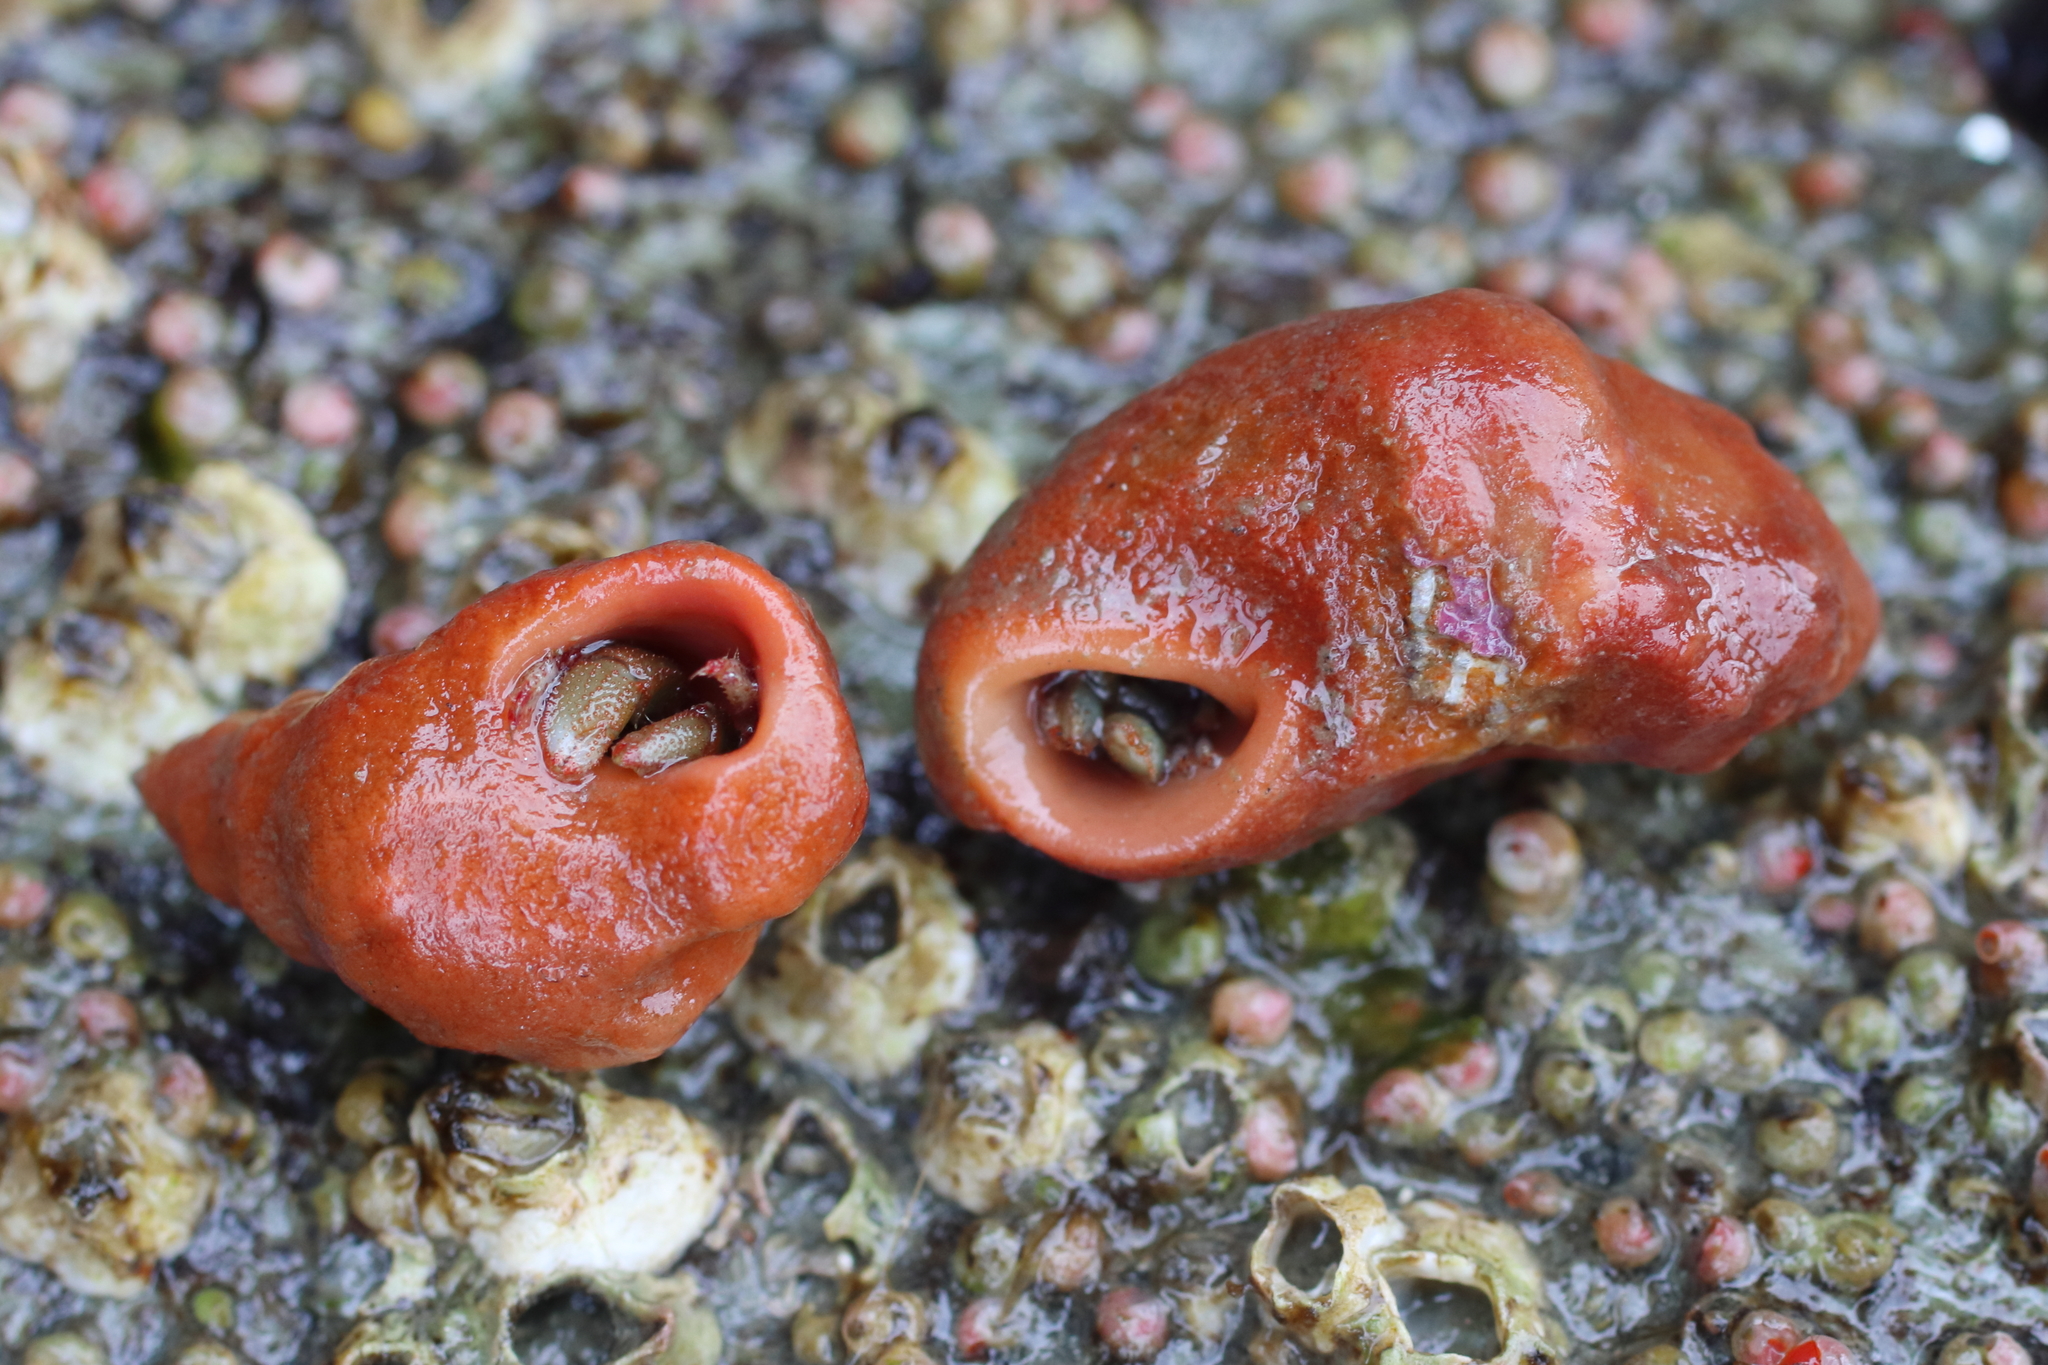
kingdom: Animalia
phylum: Arthropoda
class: Malacostraca
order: Decapoda
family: Paguridae
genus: Pagurus
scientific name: Pagurus beringanus
